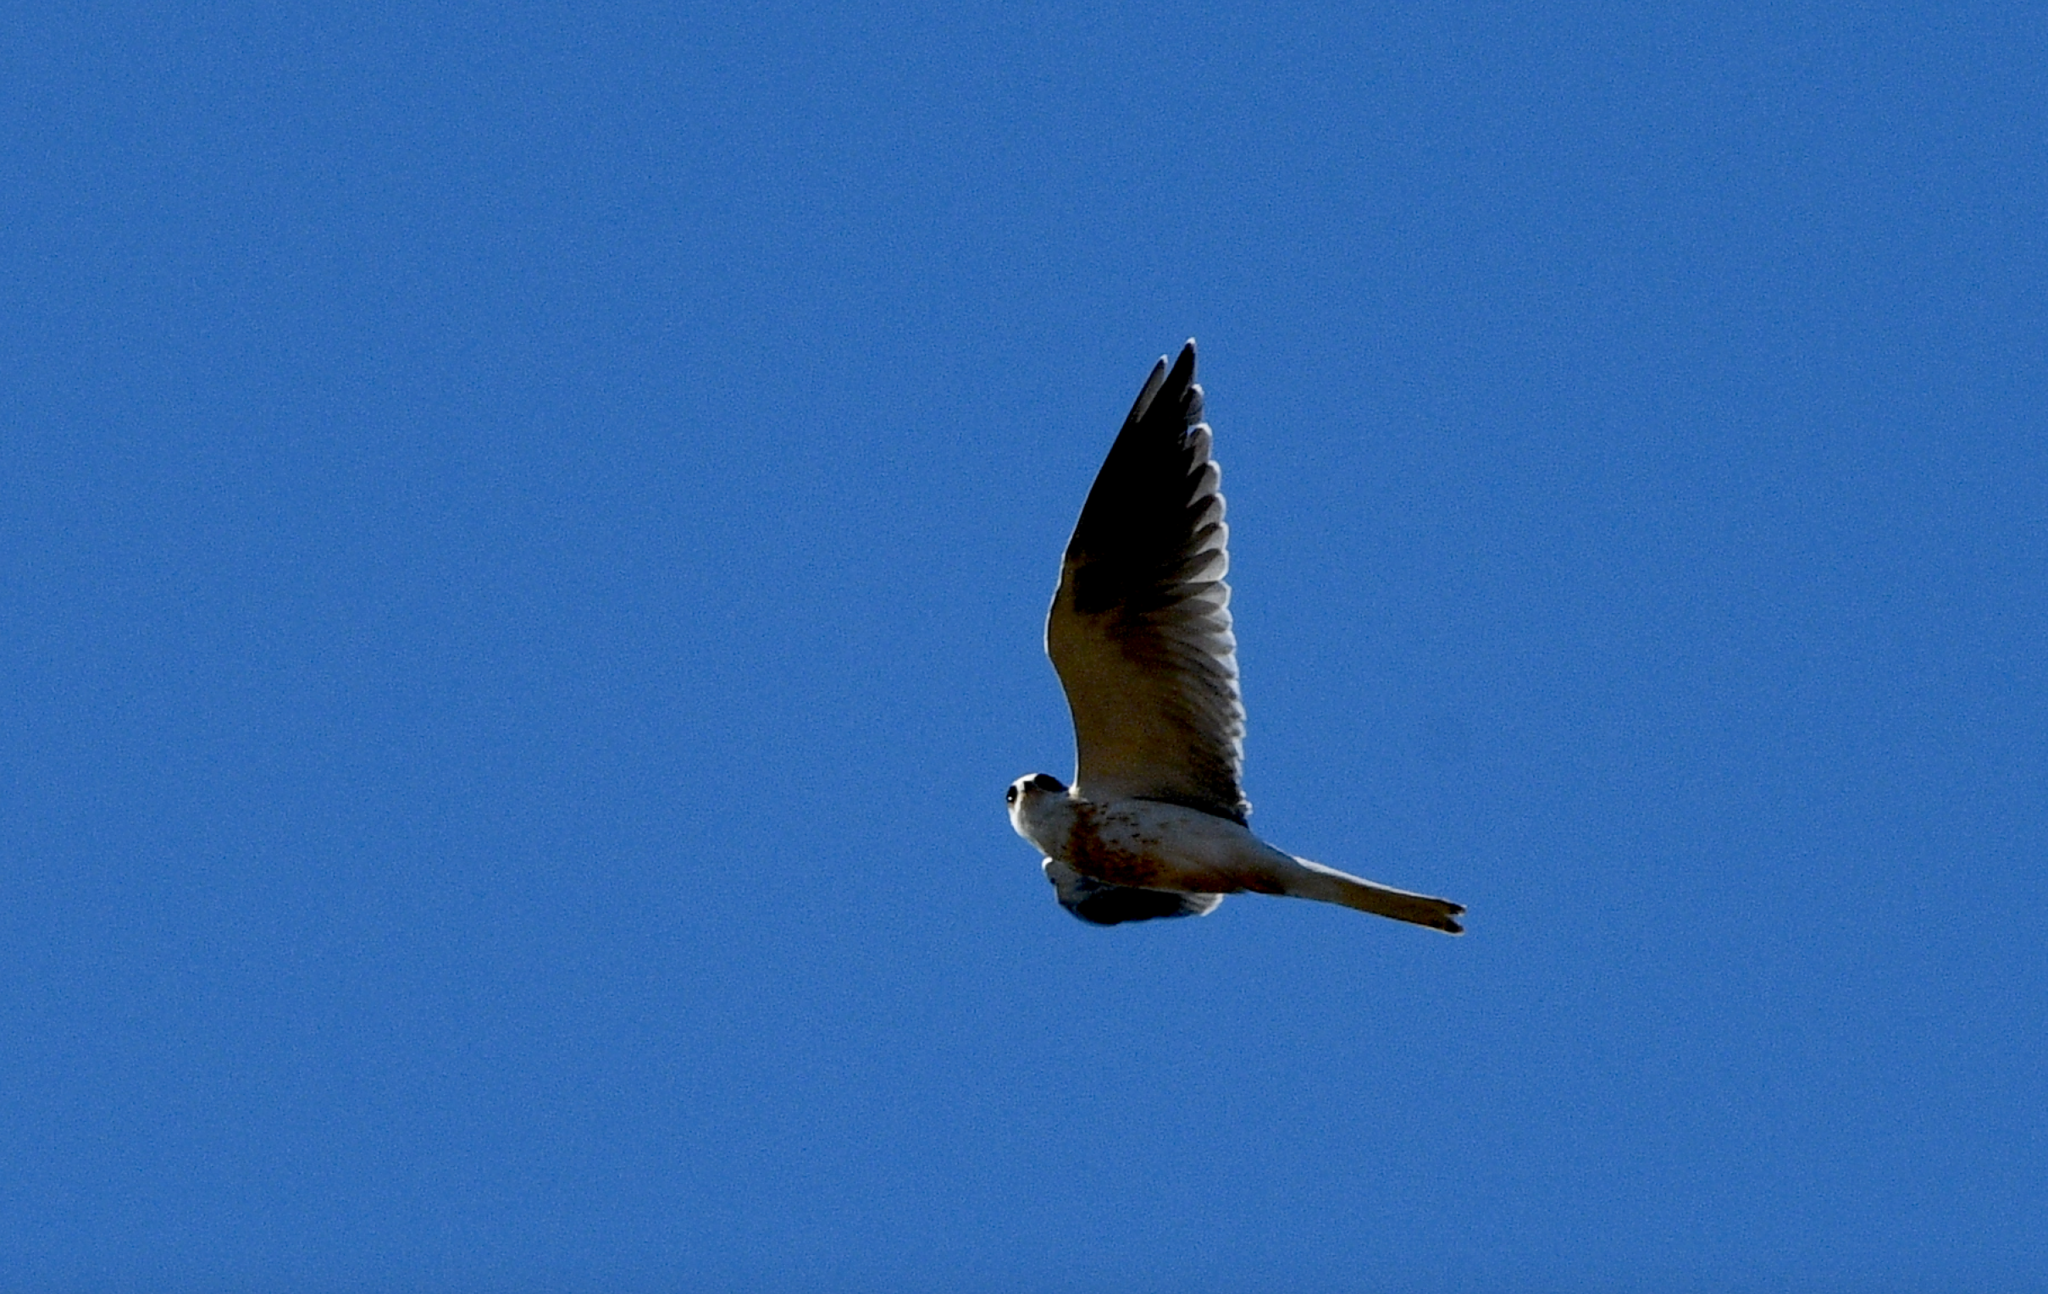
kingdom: Animalia
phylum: Chordata
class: Aves
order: Accipitriformes
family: Accipitridae
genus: Elanus
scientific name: Elanus leucurus
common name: White-tailed kite
